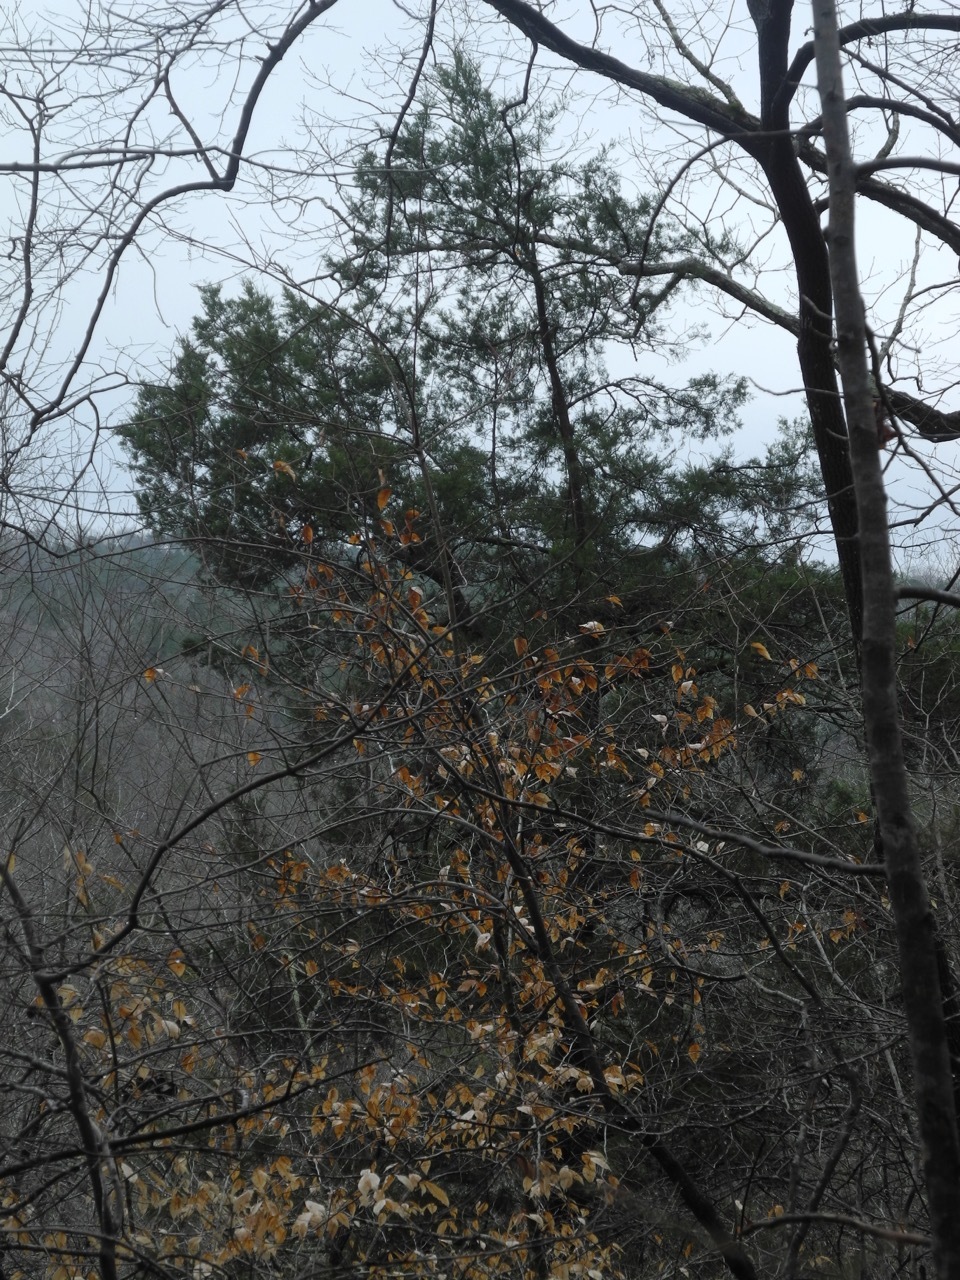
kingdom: Plantae
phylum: Tracheophyta
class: Pinopsida
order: Pinales
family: Cupressaceae
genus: Juniperus
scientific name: Juniperus virginiana
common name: Red juniper
